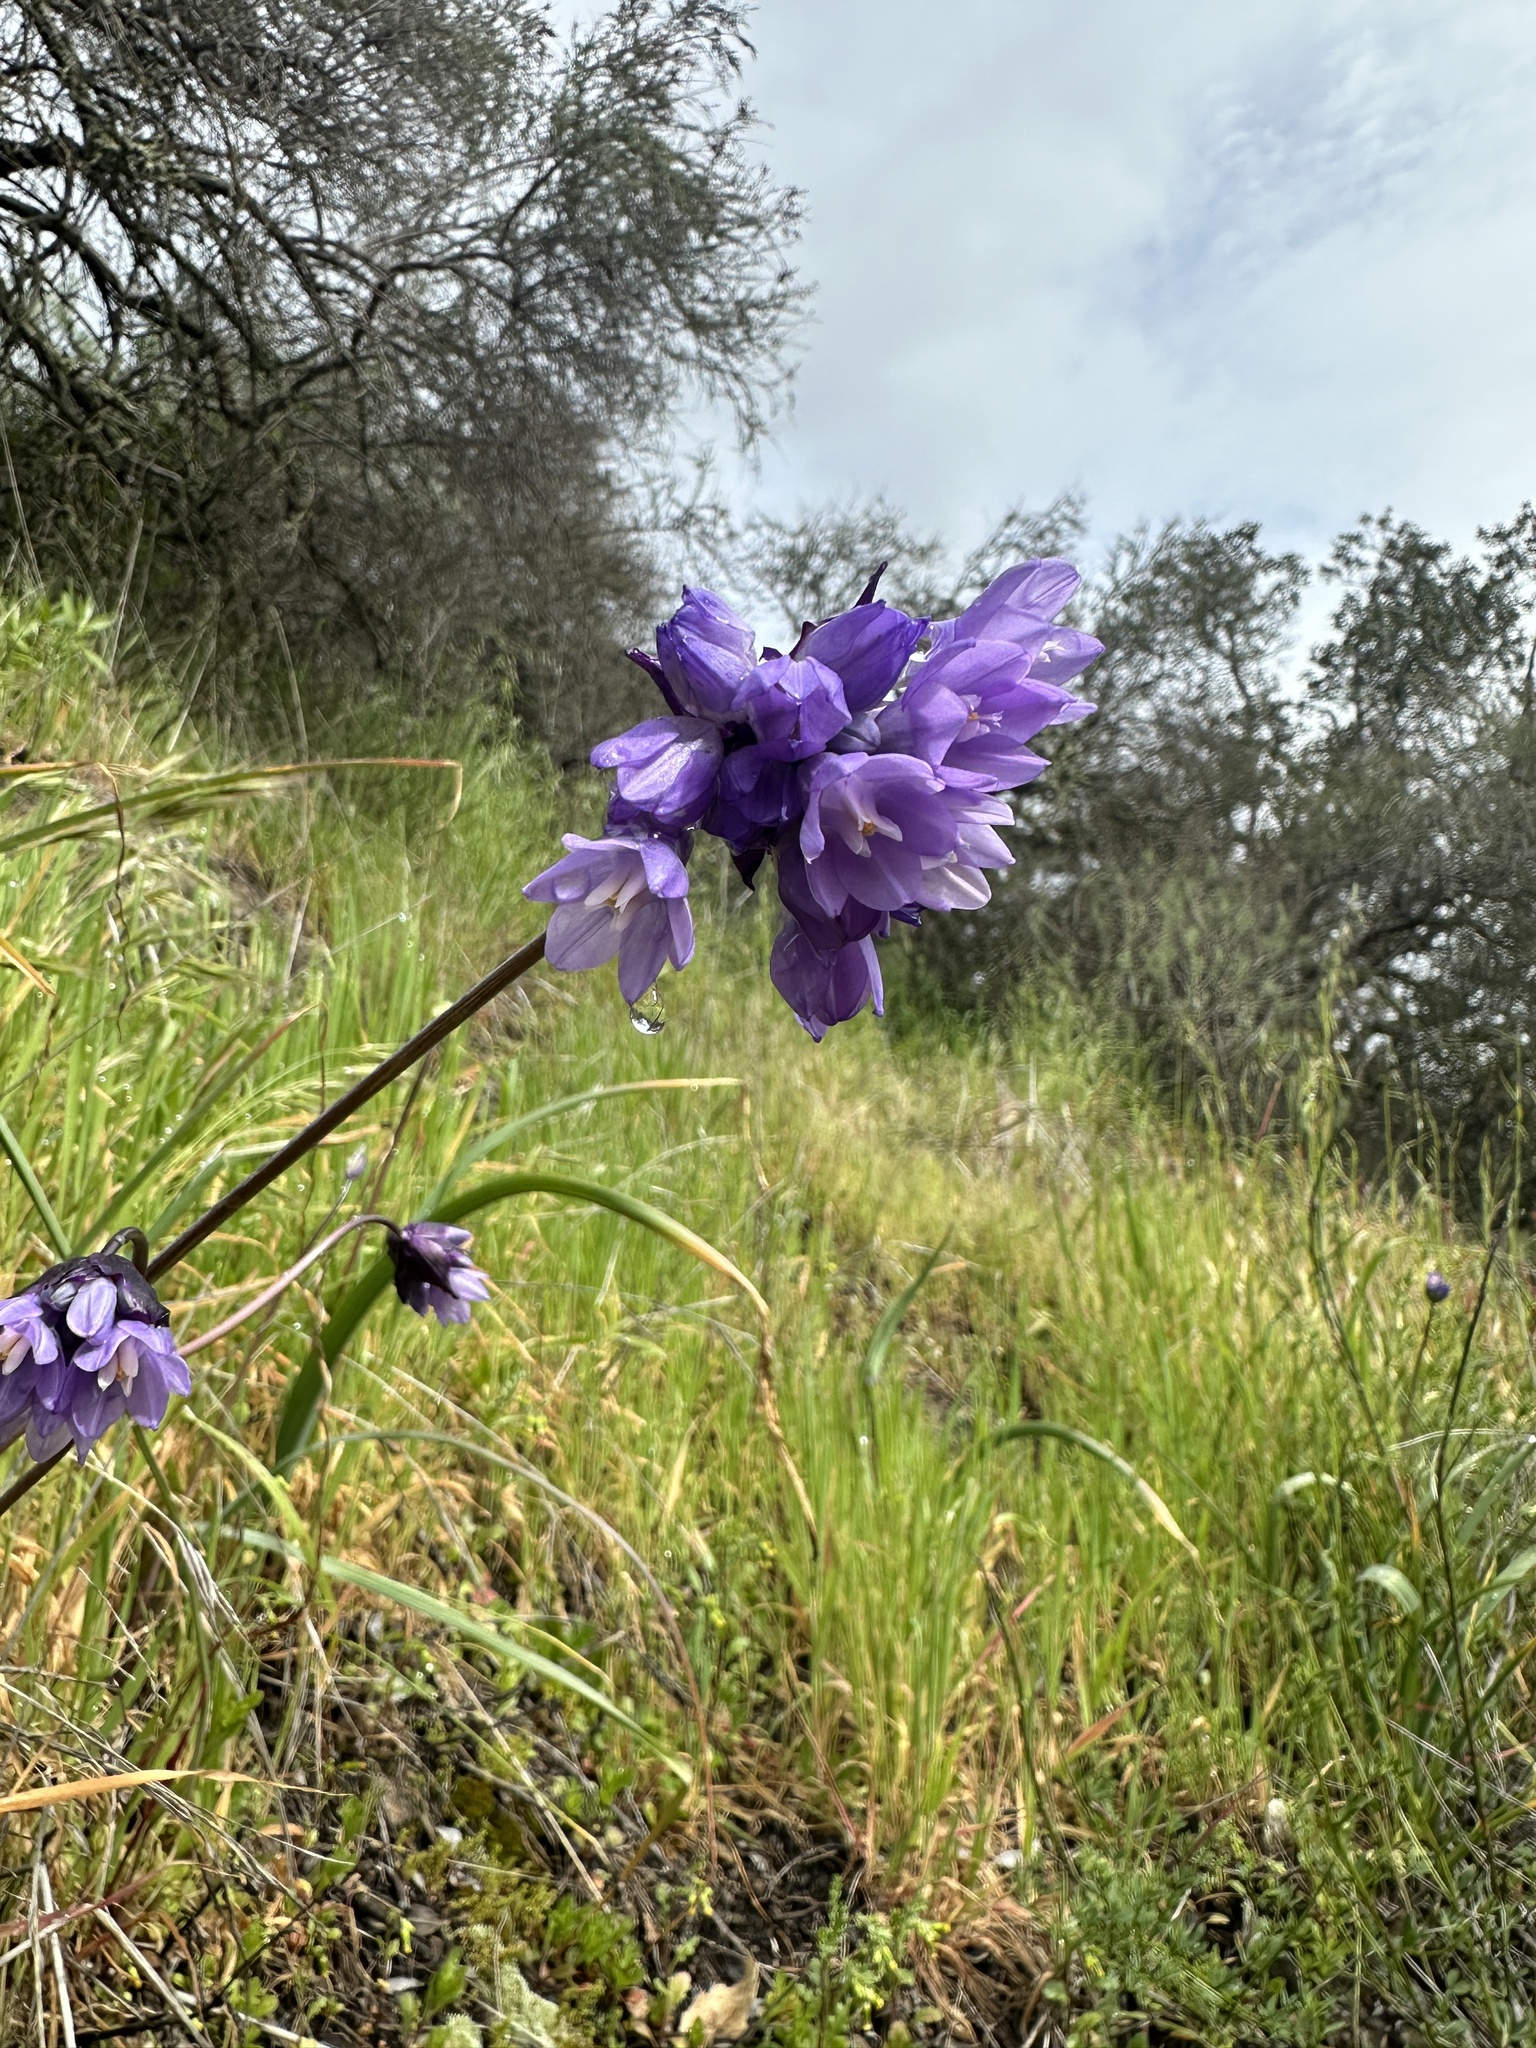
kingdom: Plantae
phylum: Tracheophyta
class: Liliopsida
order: Asparagales
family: Asparagaceae
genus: Dipterostemon
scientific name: Dipterostemon capitatus
